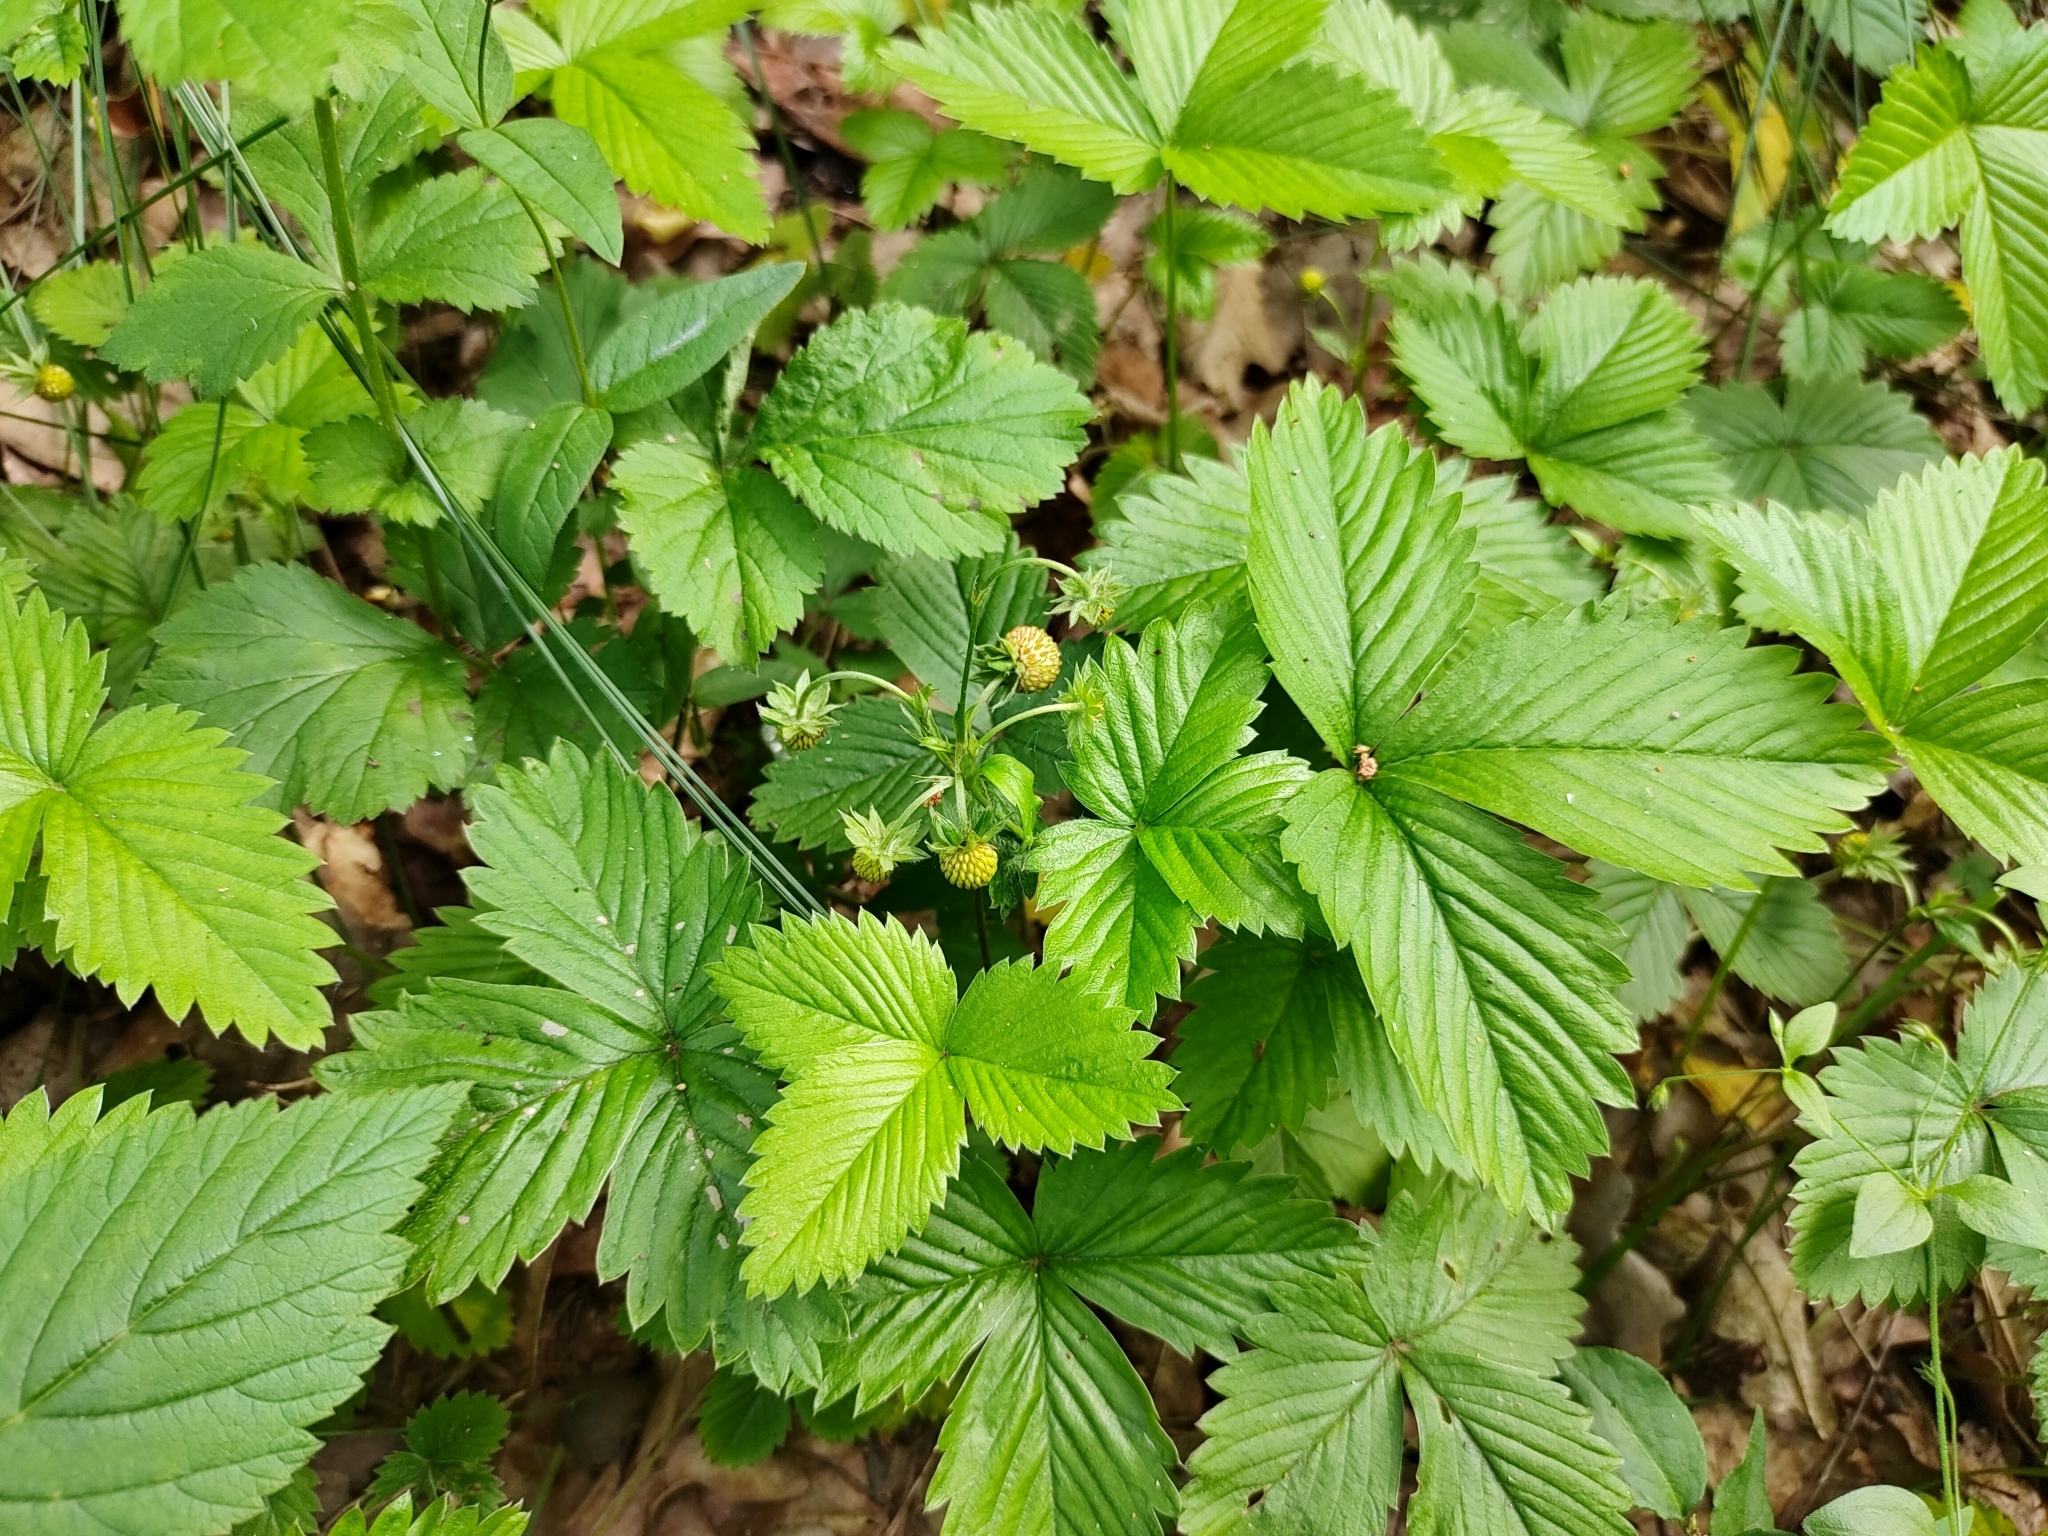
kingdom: Plantae
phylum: Tracheophyta
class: Magnoliopsida
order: Rosales
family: Rosaceae
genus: Fragaria
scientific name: Fragaria vesca
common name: Wild strawberry
